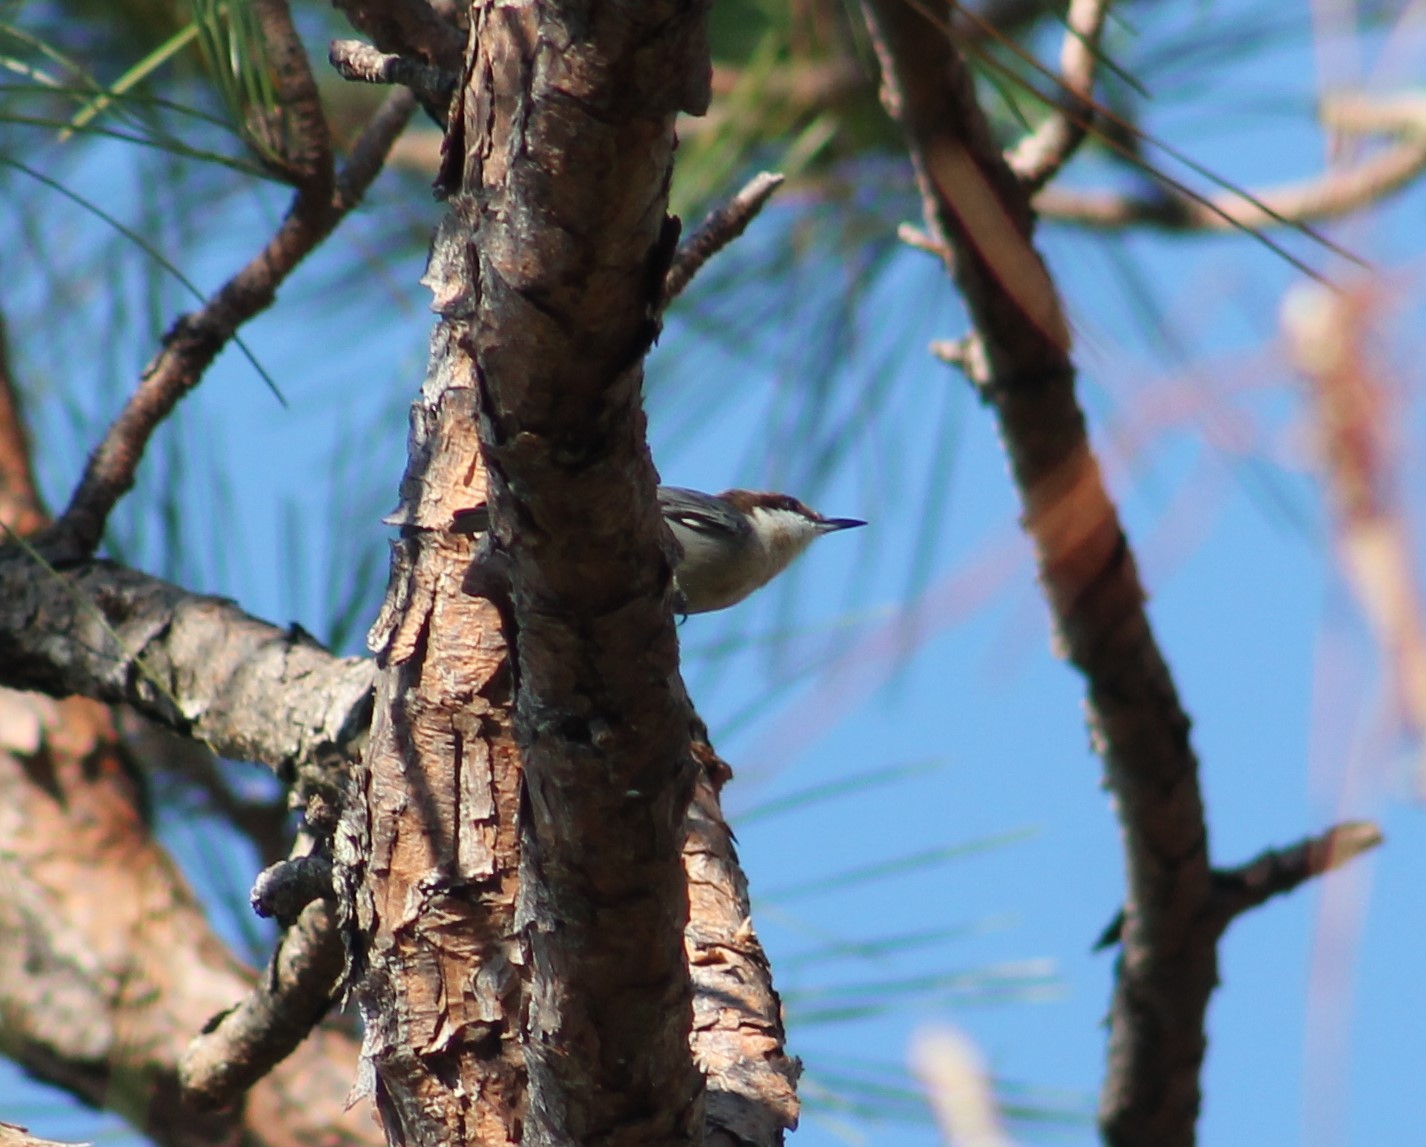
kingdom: Animalia
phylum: Chordata
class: Aves
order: Passeriformes
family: Sittidae
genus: Sitta
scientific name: Sitta pusilla
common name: Brown-headed nuthatch
